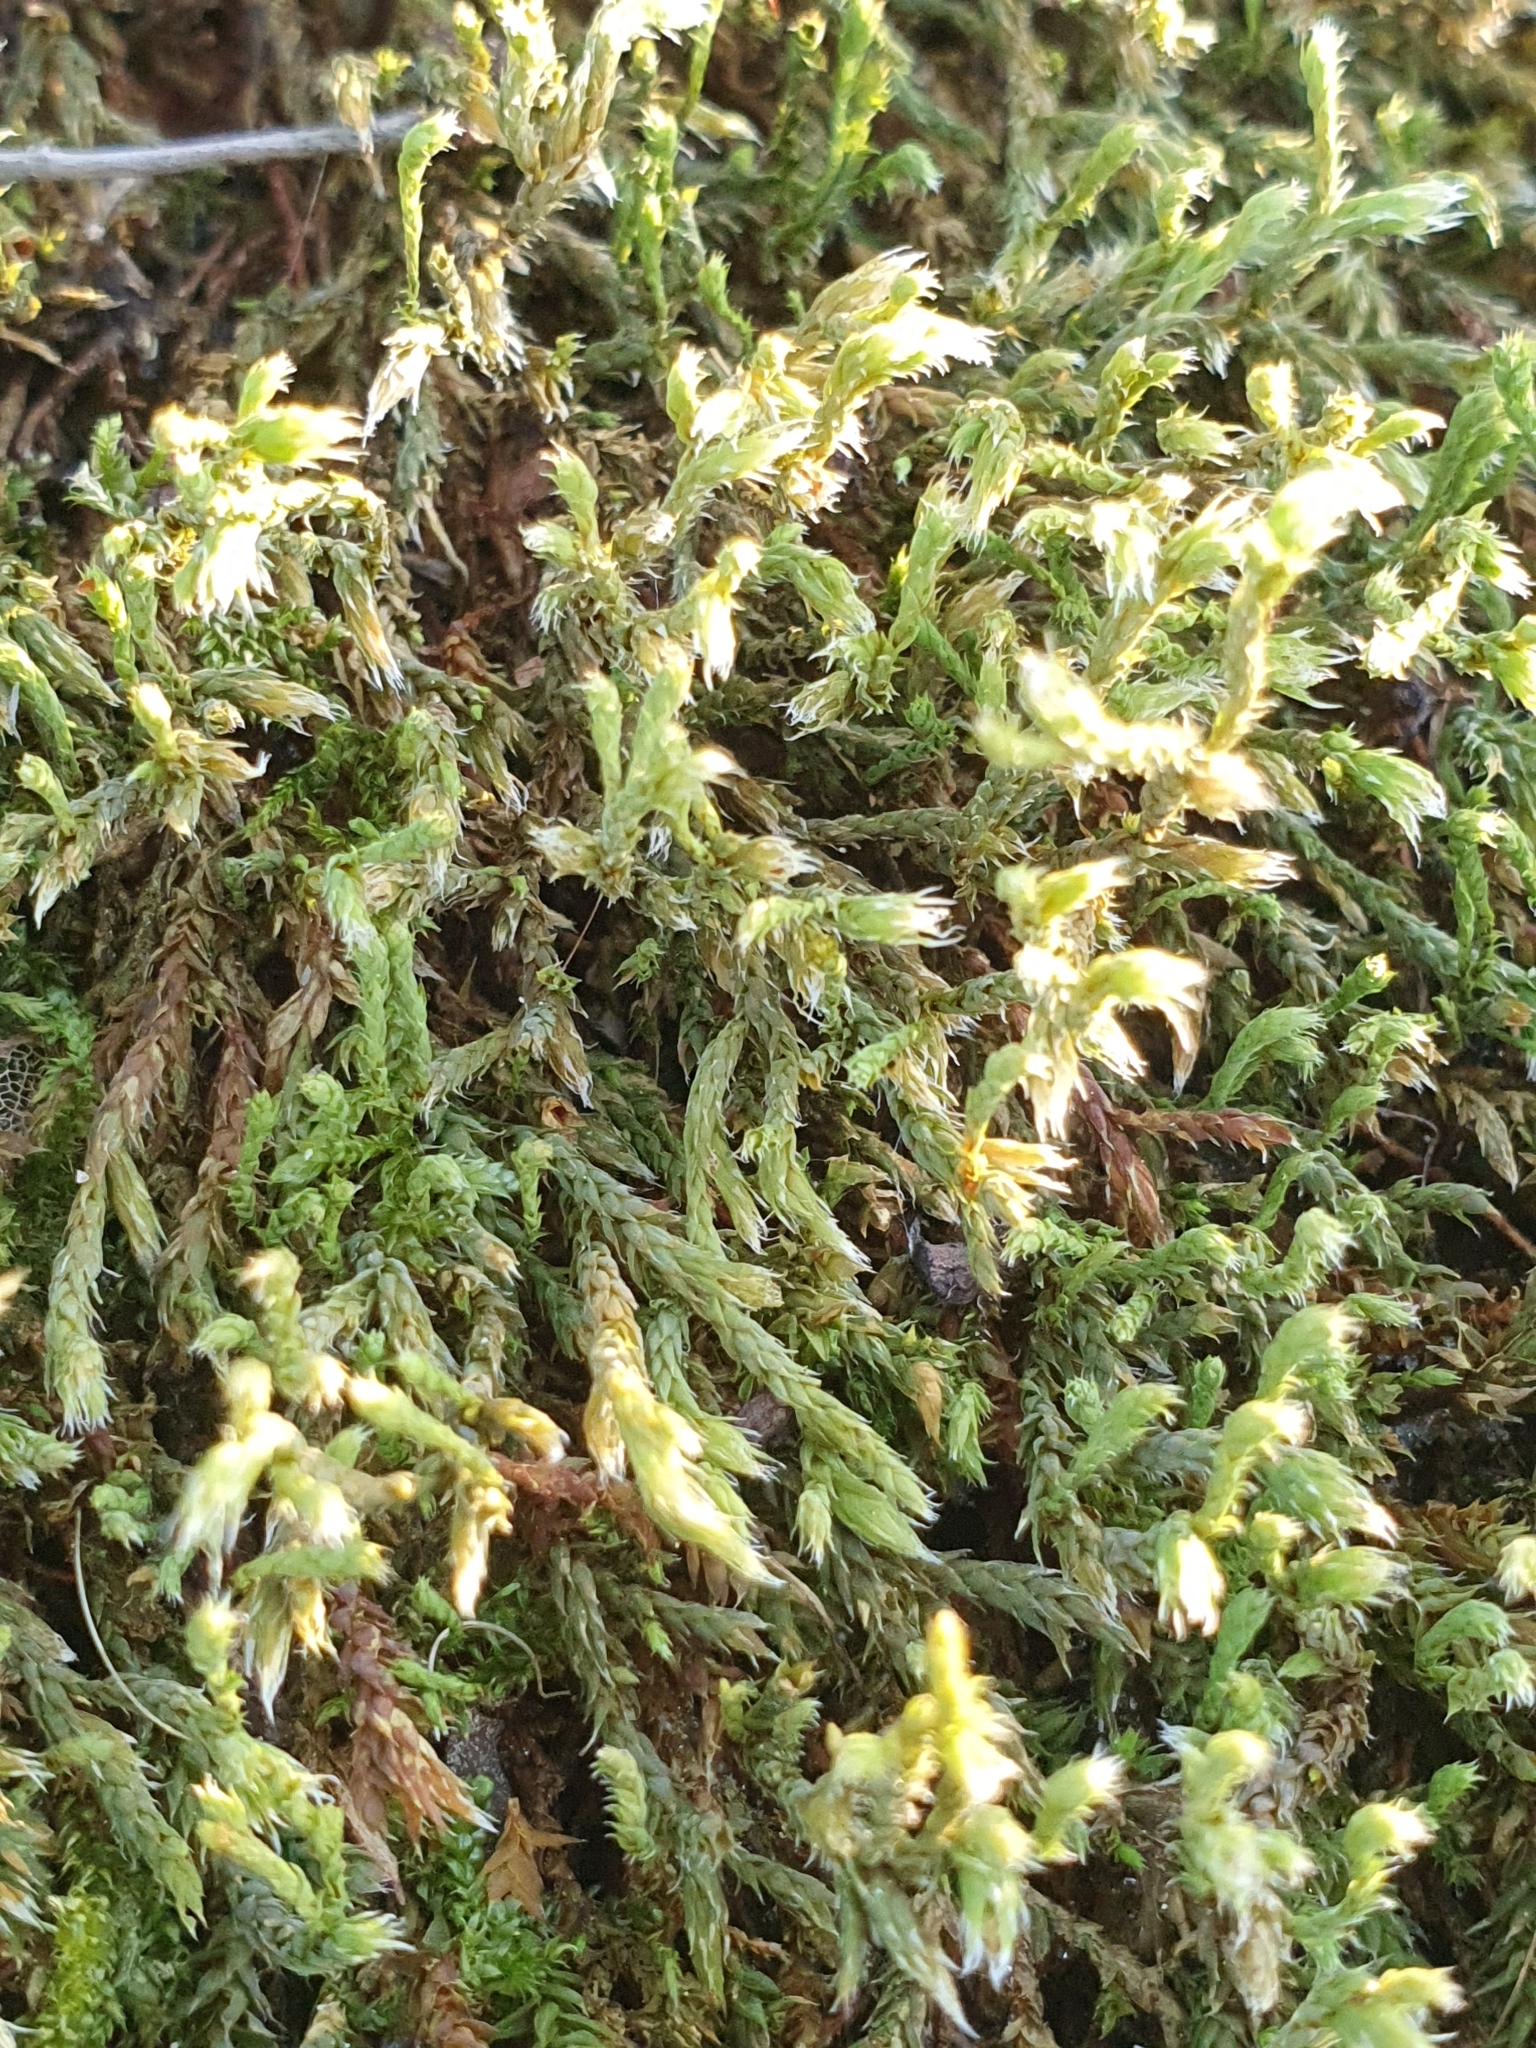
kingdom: Plantae
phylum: Bryophyta
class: Bryopsida
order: Hedwigiales
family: Hedwigiaceae
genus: Hedwigia
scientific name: Hedwigia ciliata
